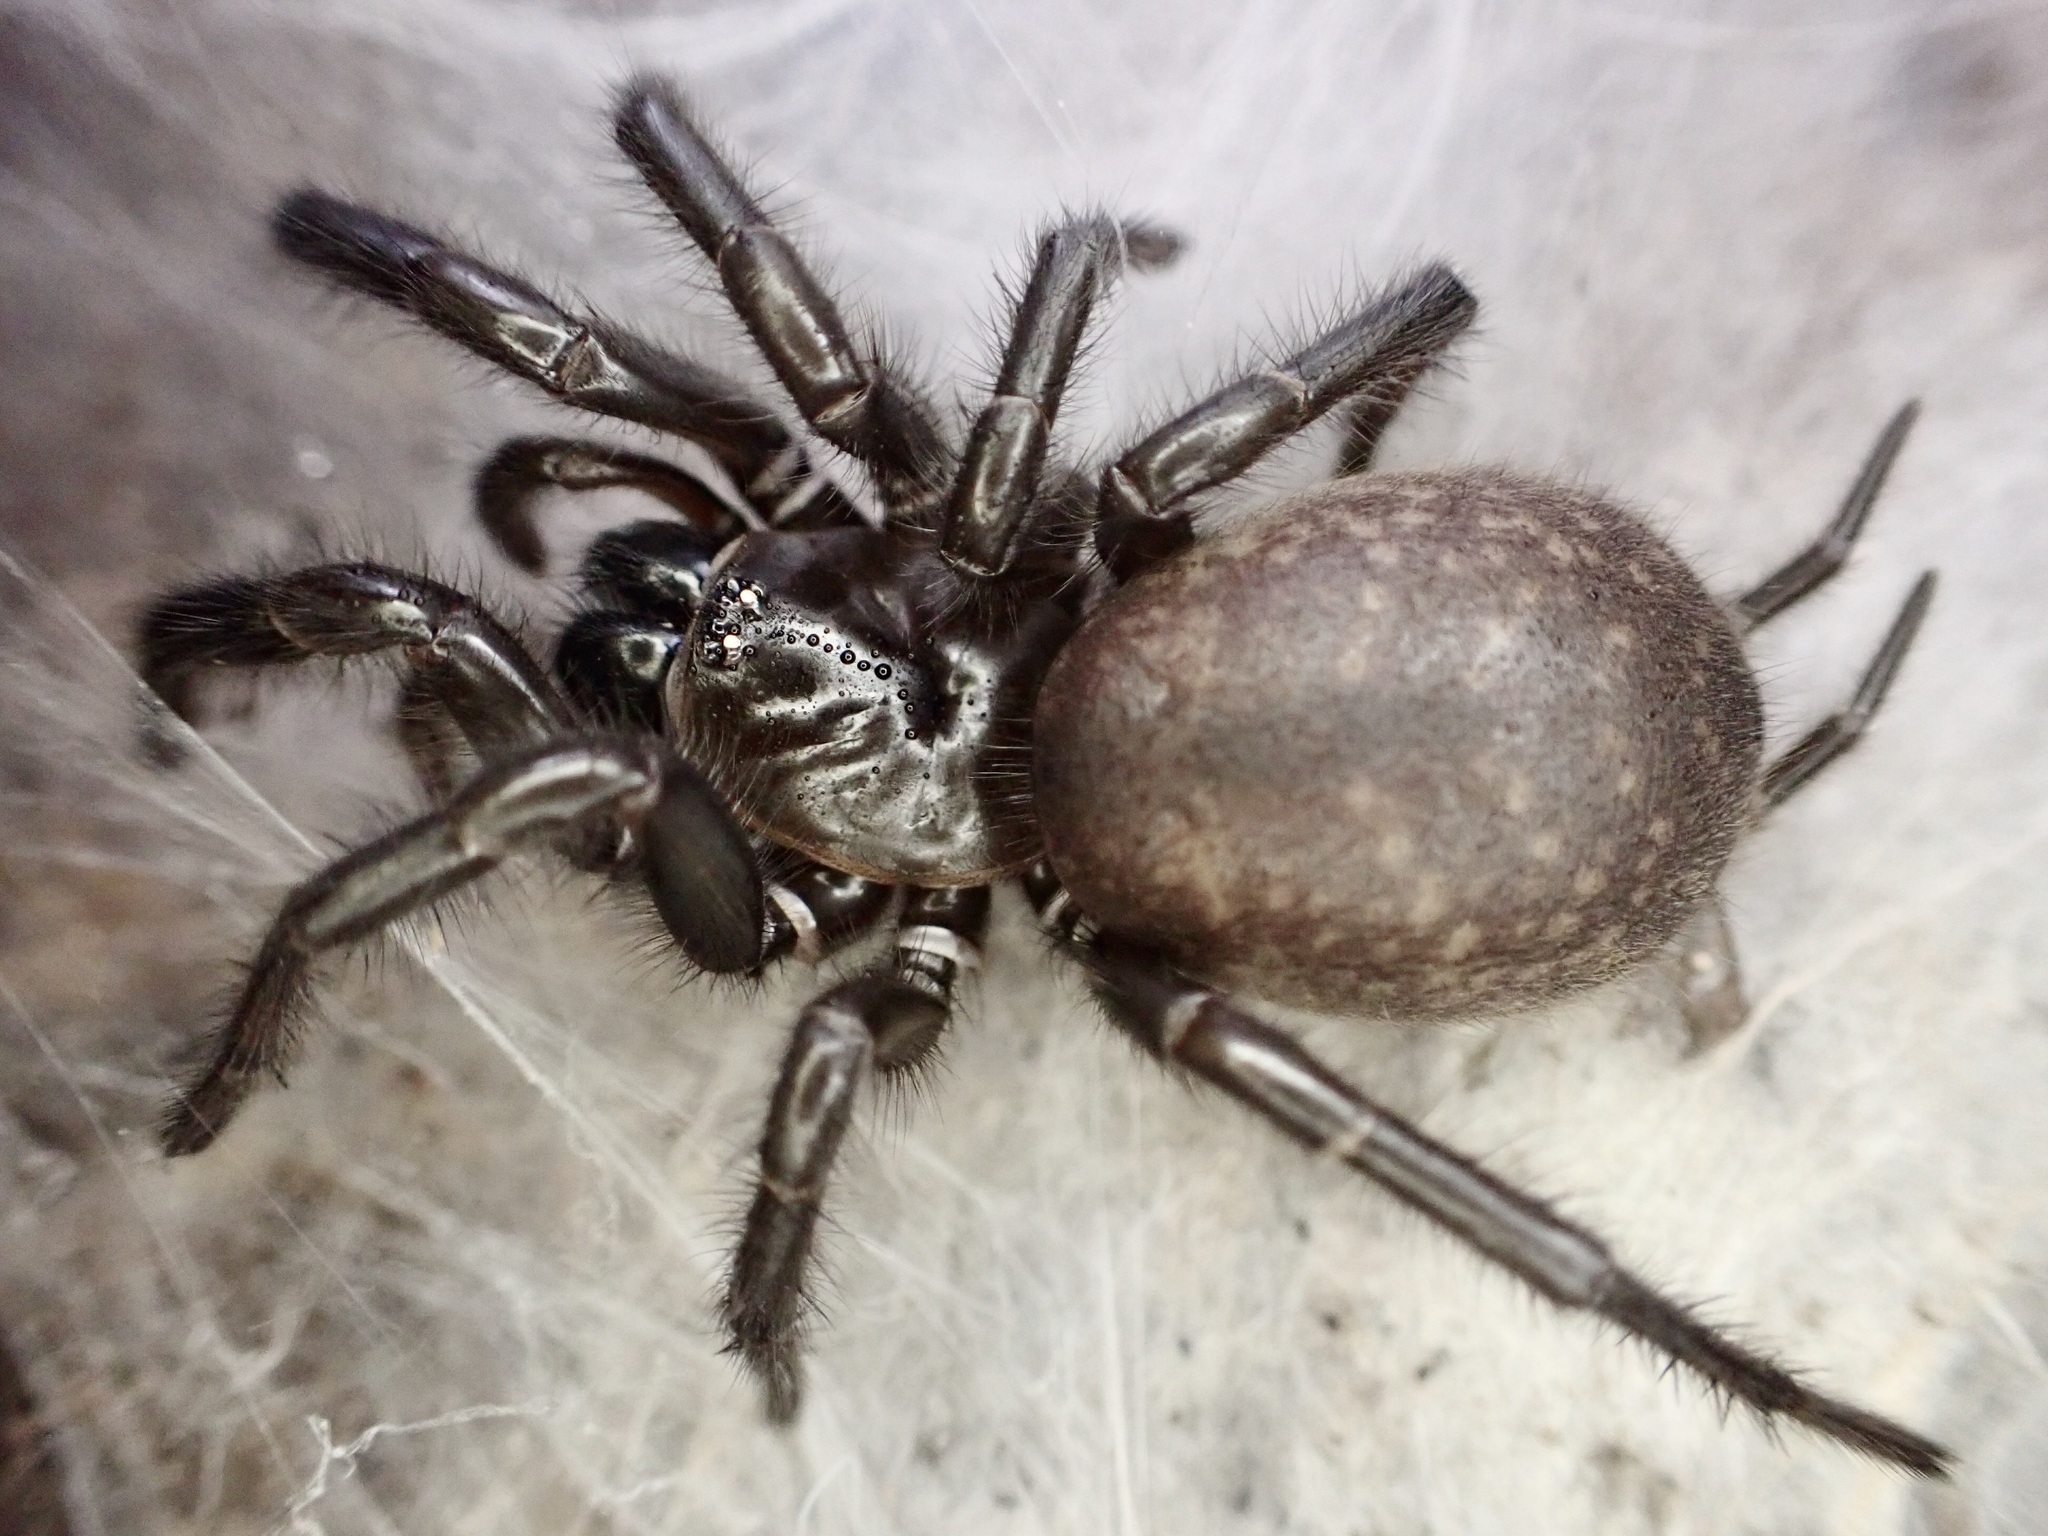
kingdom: Animalia
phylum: Arthropoda
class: Arachnida
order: Araneae
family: Porrhothelidae
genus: Porrhothele
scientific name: Porrhothele antipodiana
